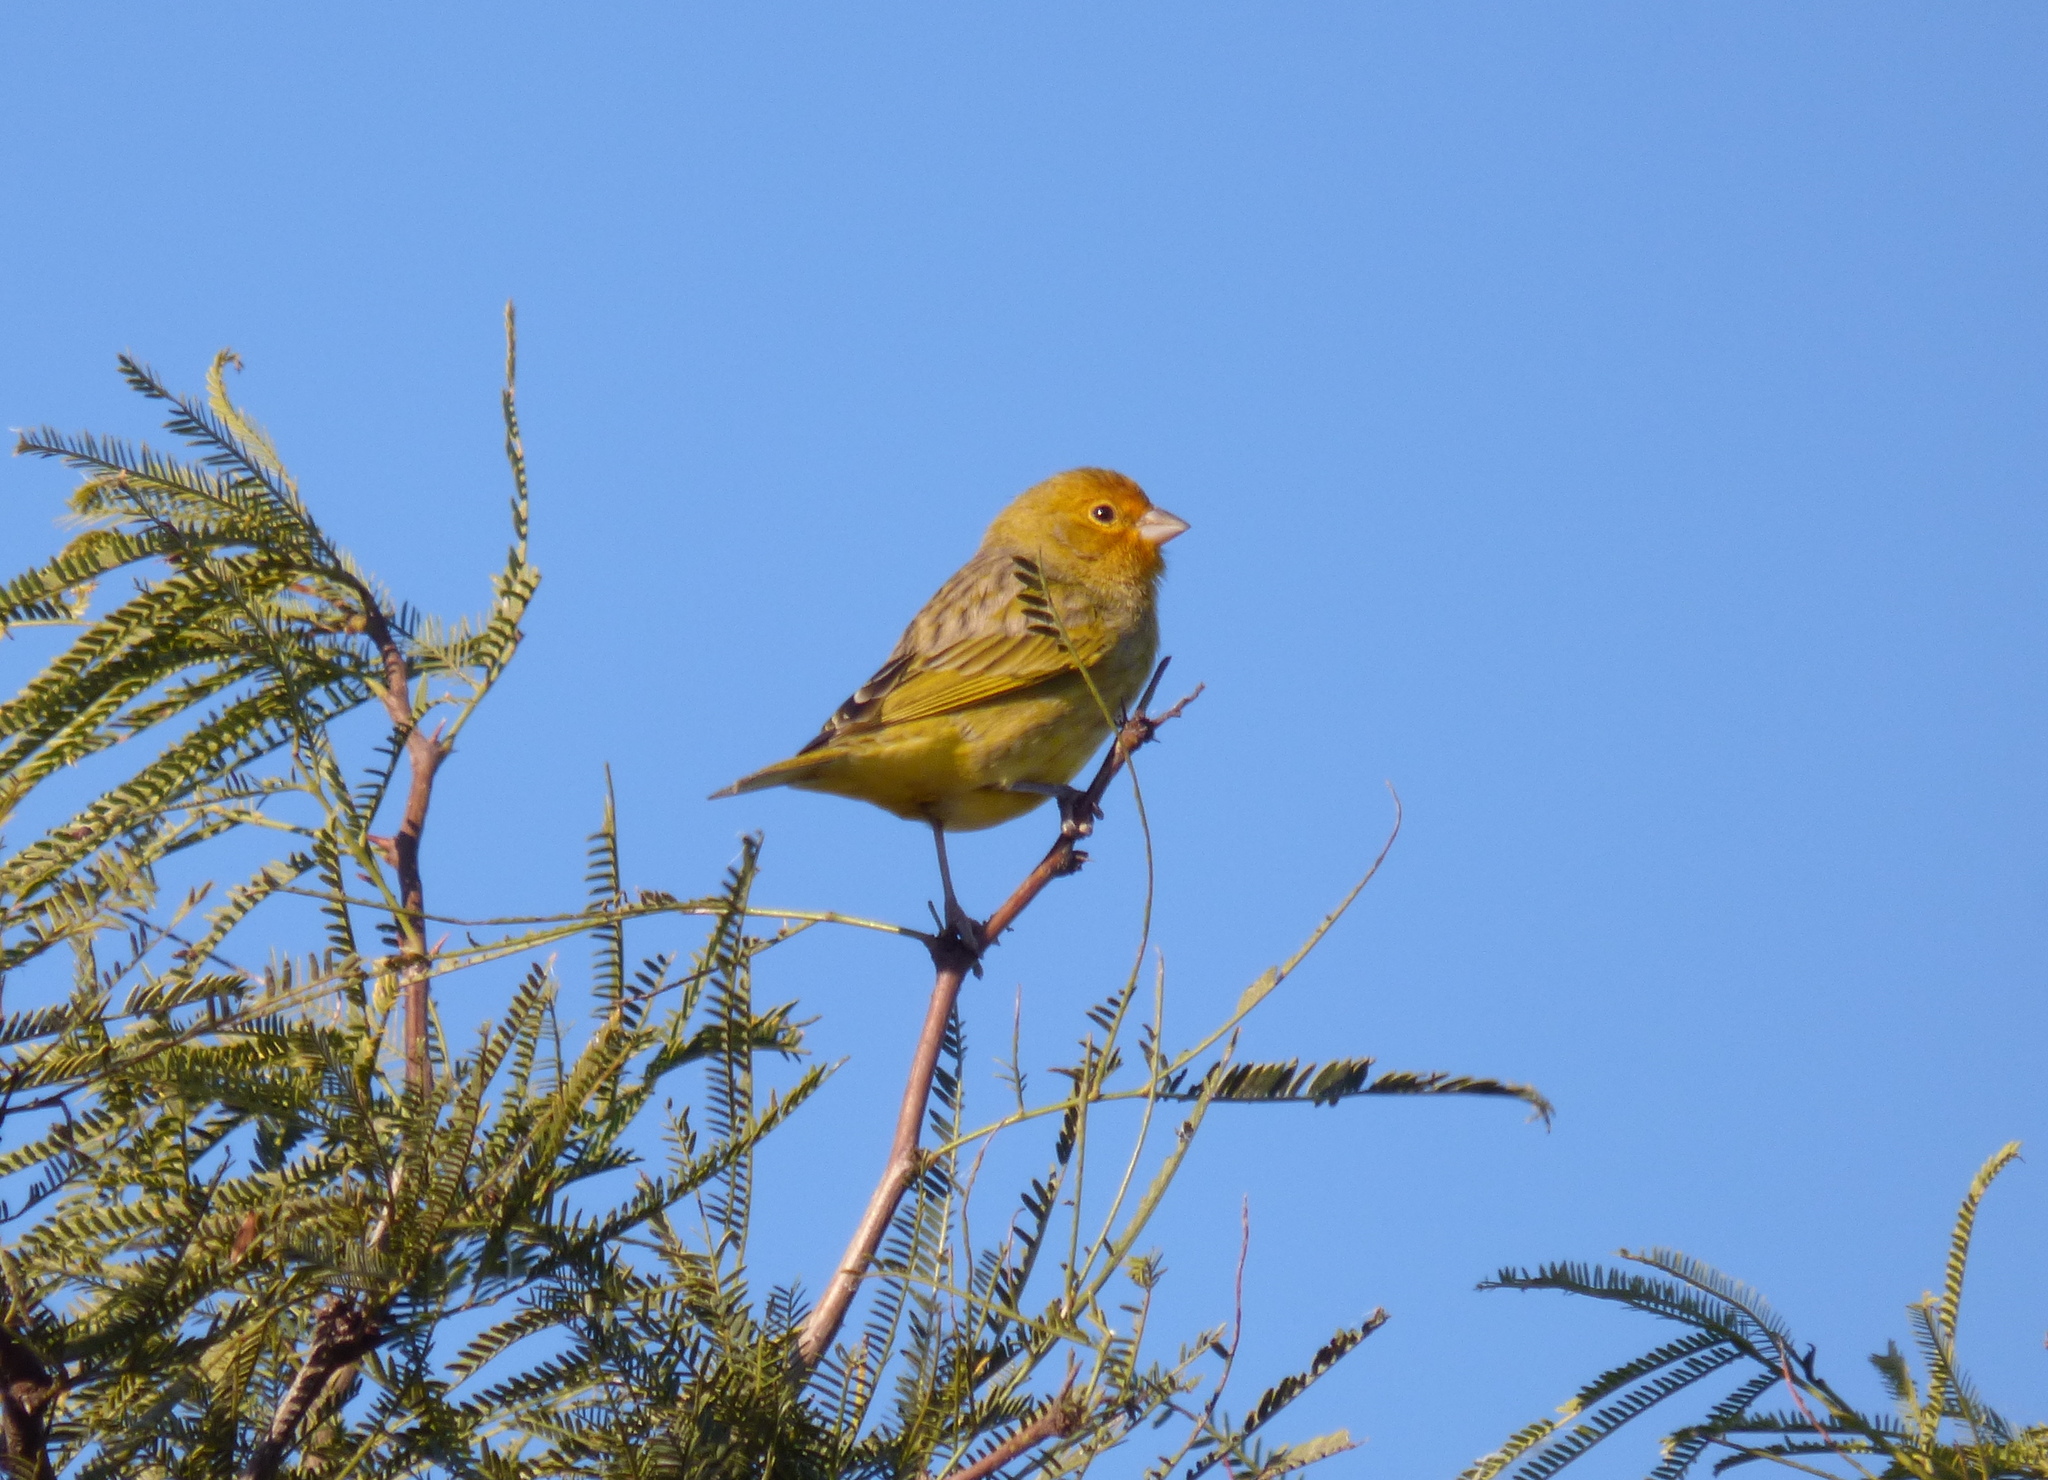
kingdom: Animalia
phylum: Chordata
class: Aves
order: Passeriformes
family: Thraupidae
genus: Sicalis
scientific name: Sicalis flaveola
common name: Saffron finch
